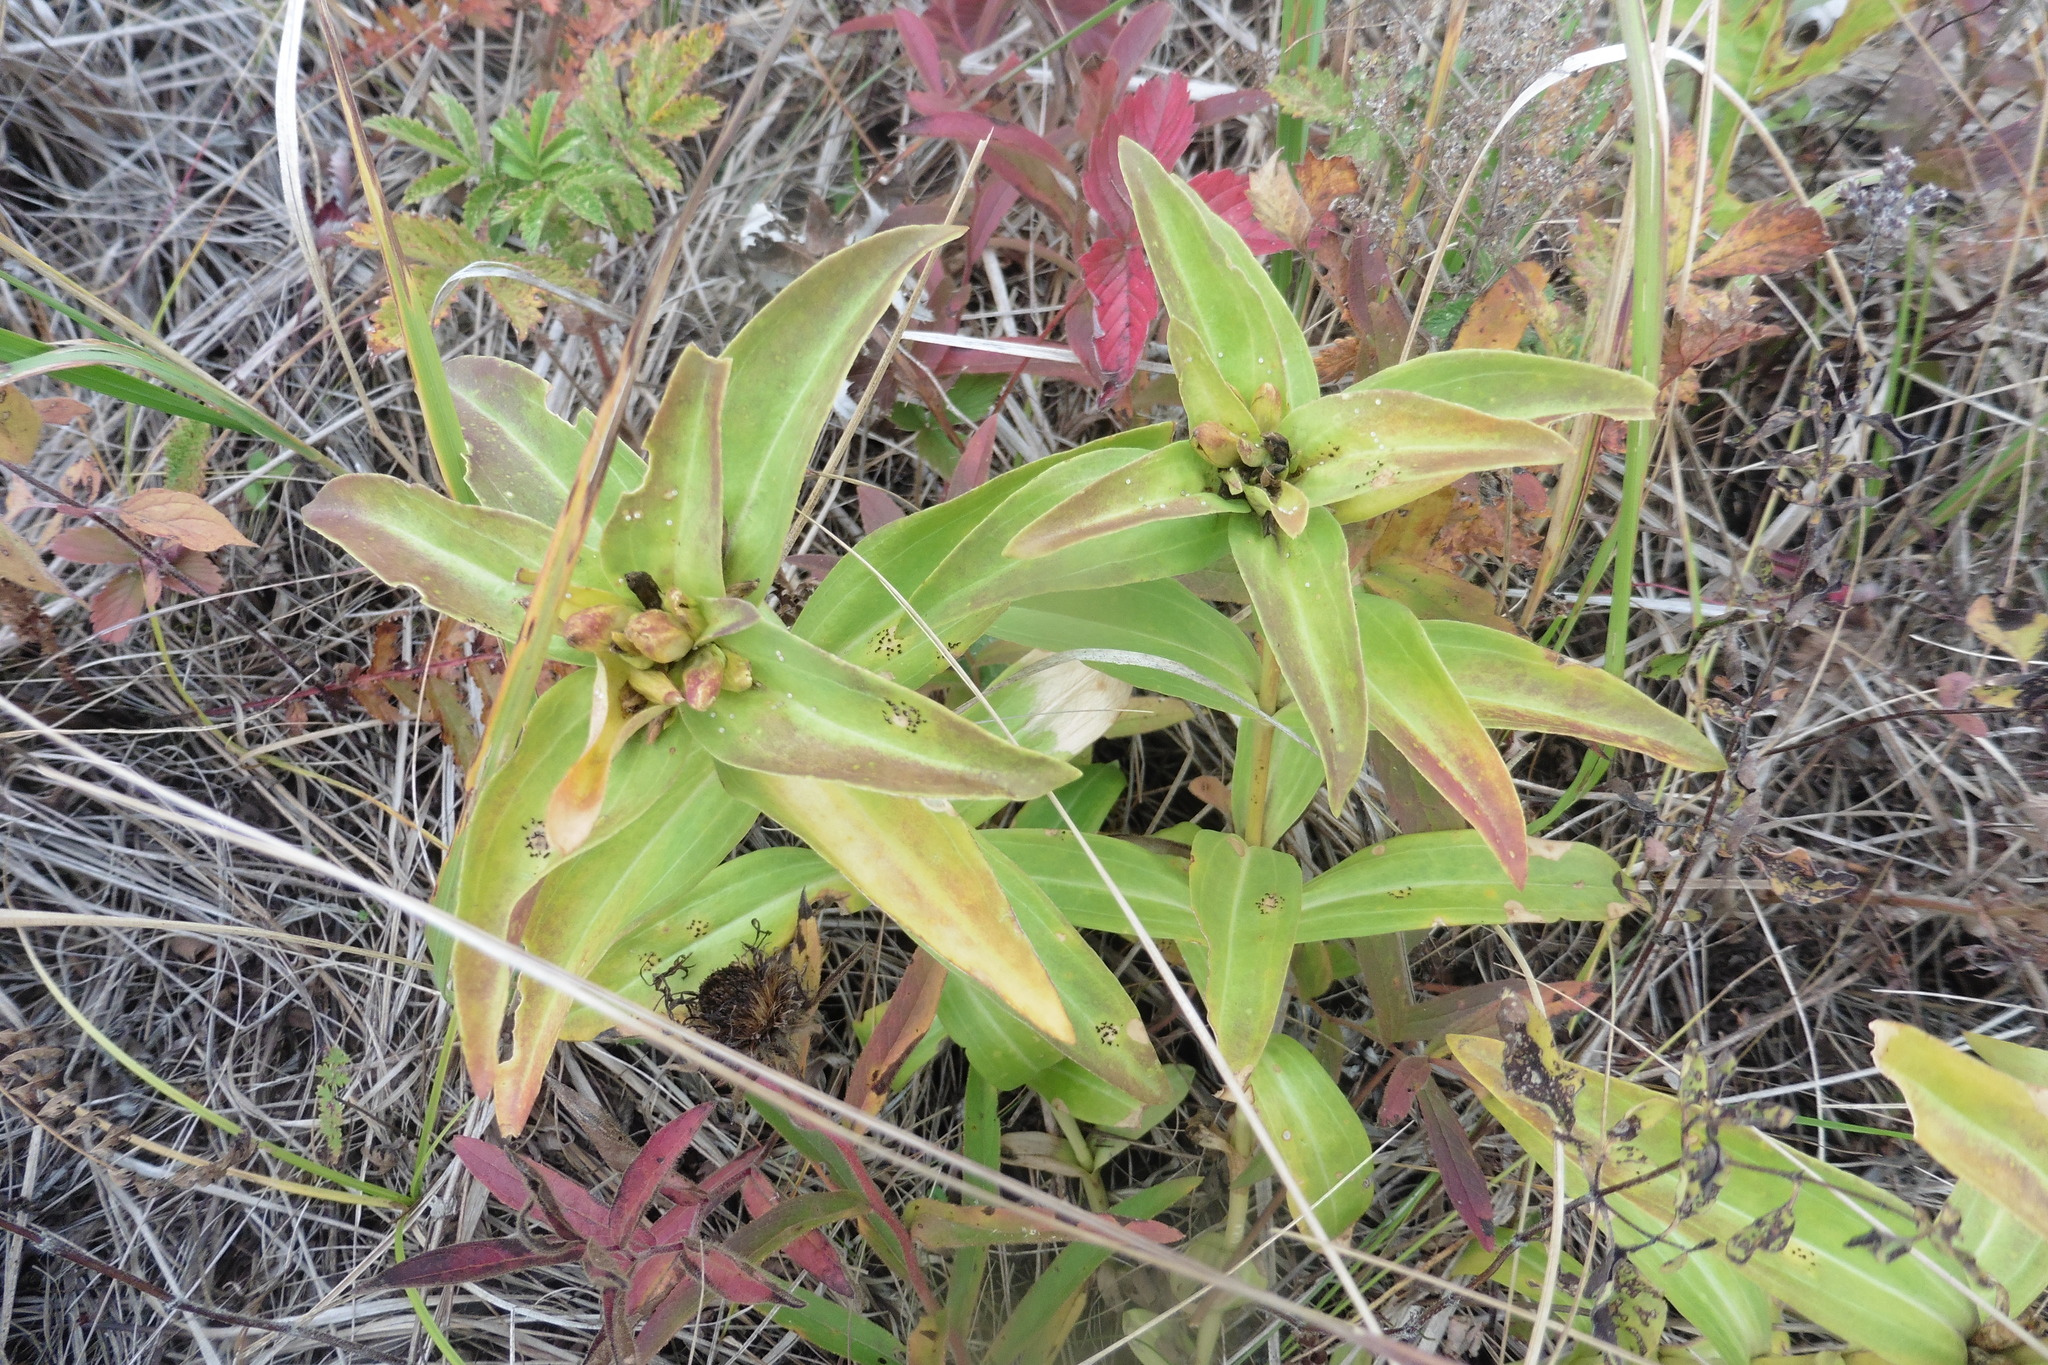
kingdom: Plantae
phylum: Tracheophyta
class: Magnoliopsida
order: Gentianales
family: Gentianaceae
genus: Gentiana
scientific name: Gentiana cruciata
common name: Cross gentian
